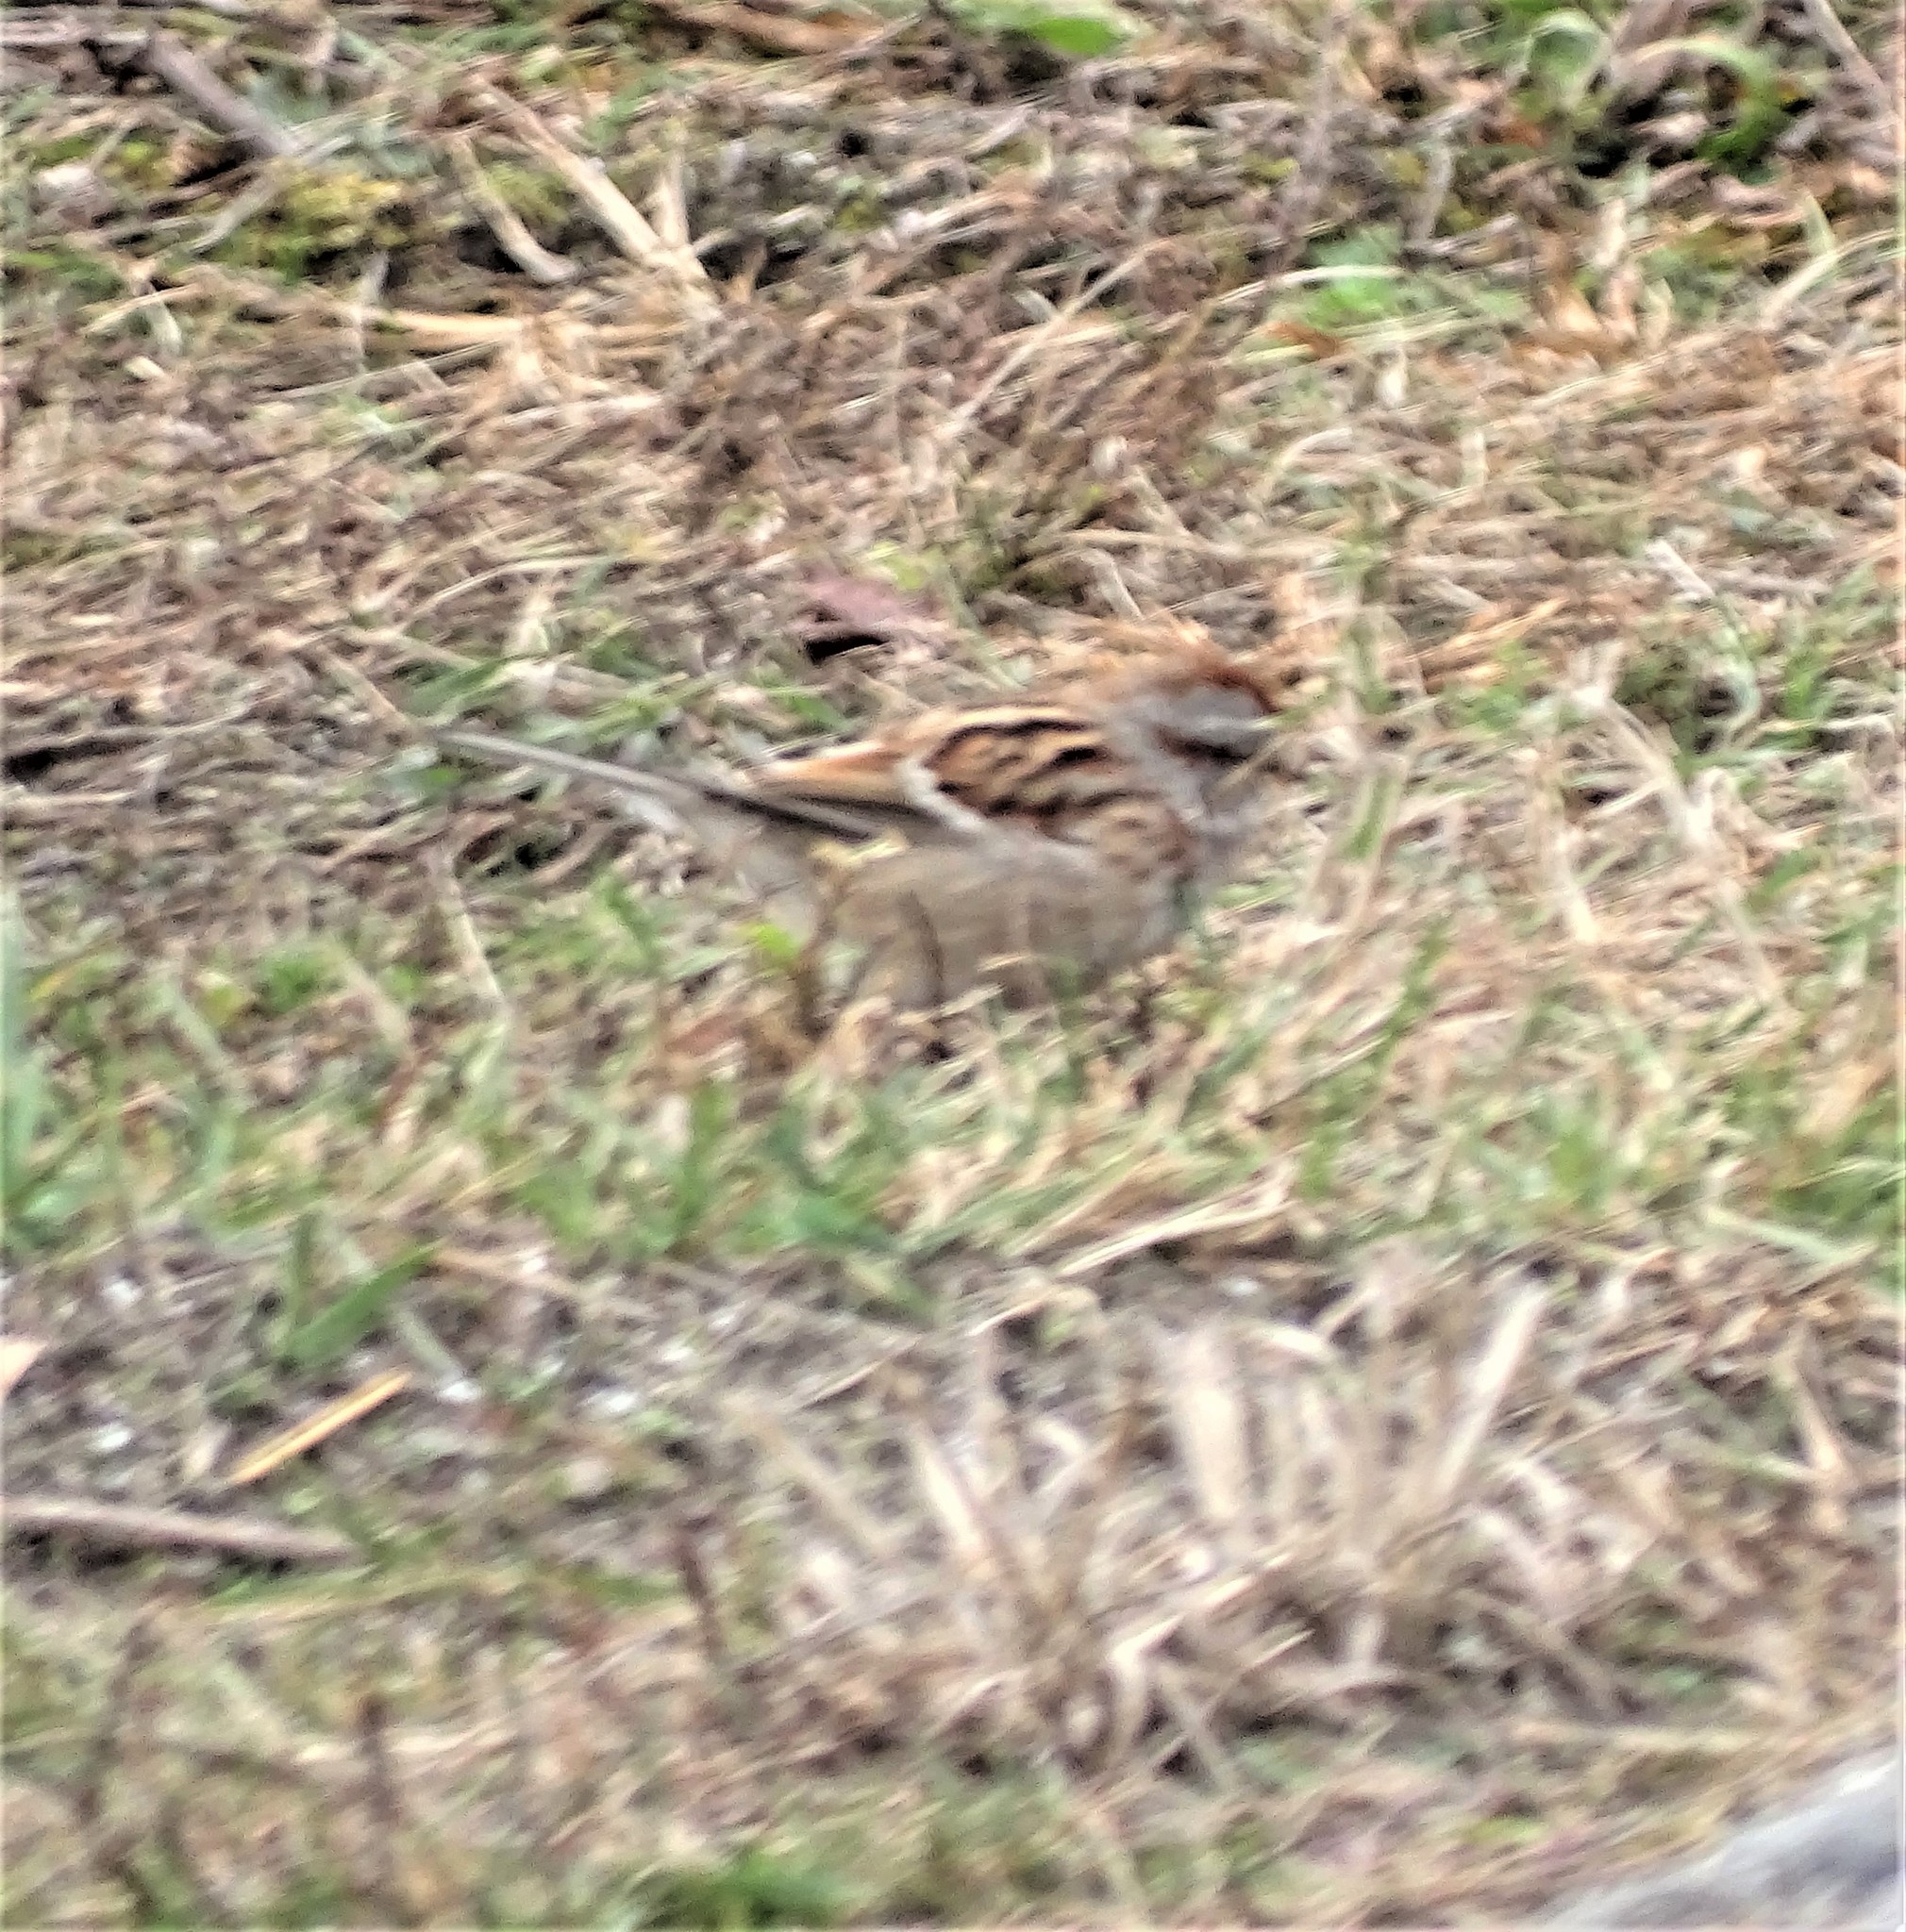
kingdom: Animalia
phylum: Chordata
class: Aves
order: Passeriformes
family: Passerellidae
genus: Spizelloides
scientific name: Spizelloides arborea
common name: American tree sparrow
